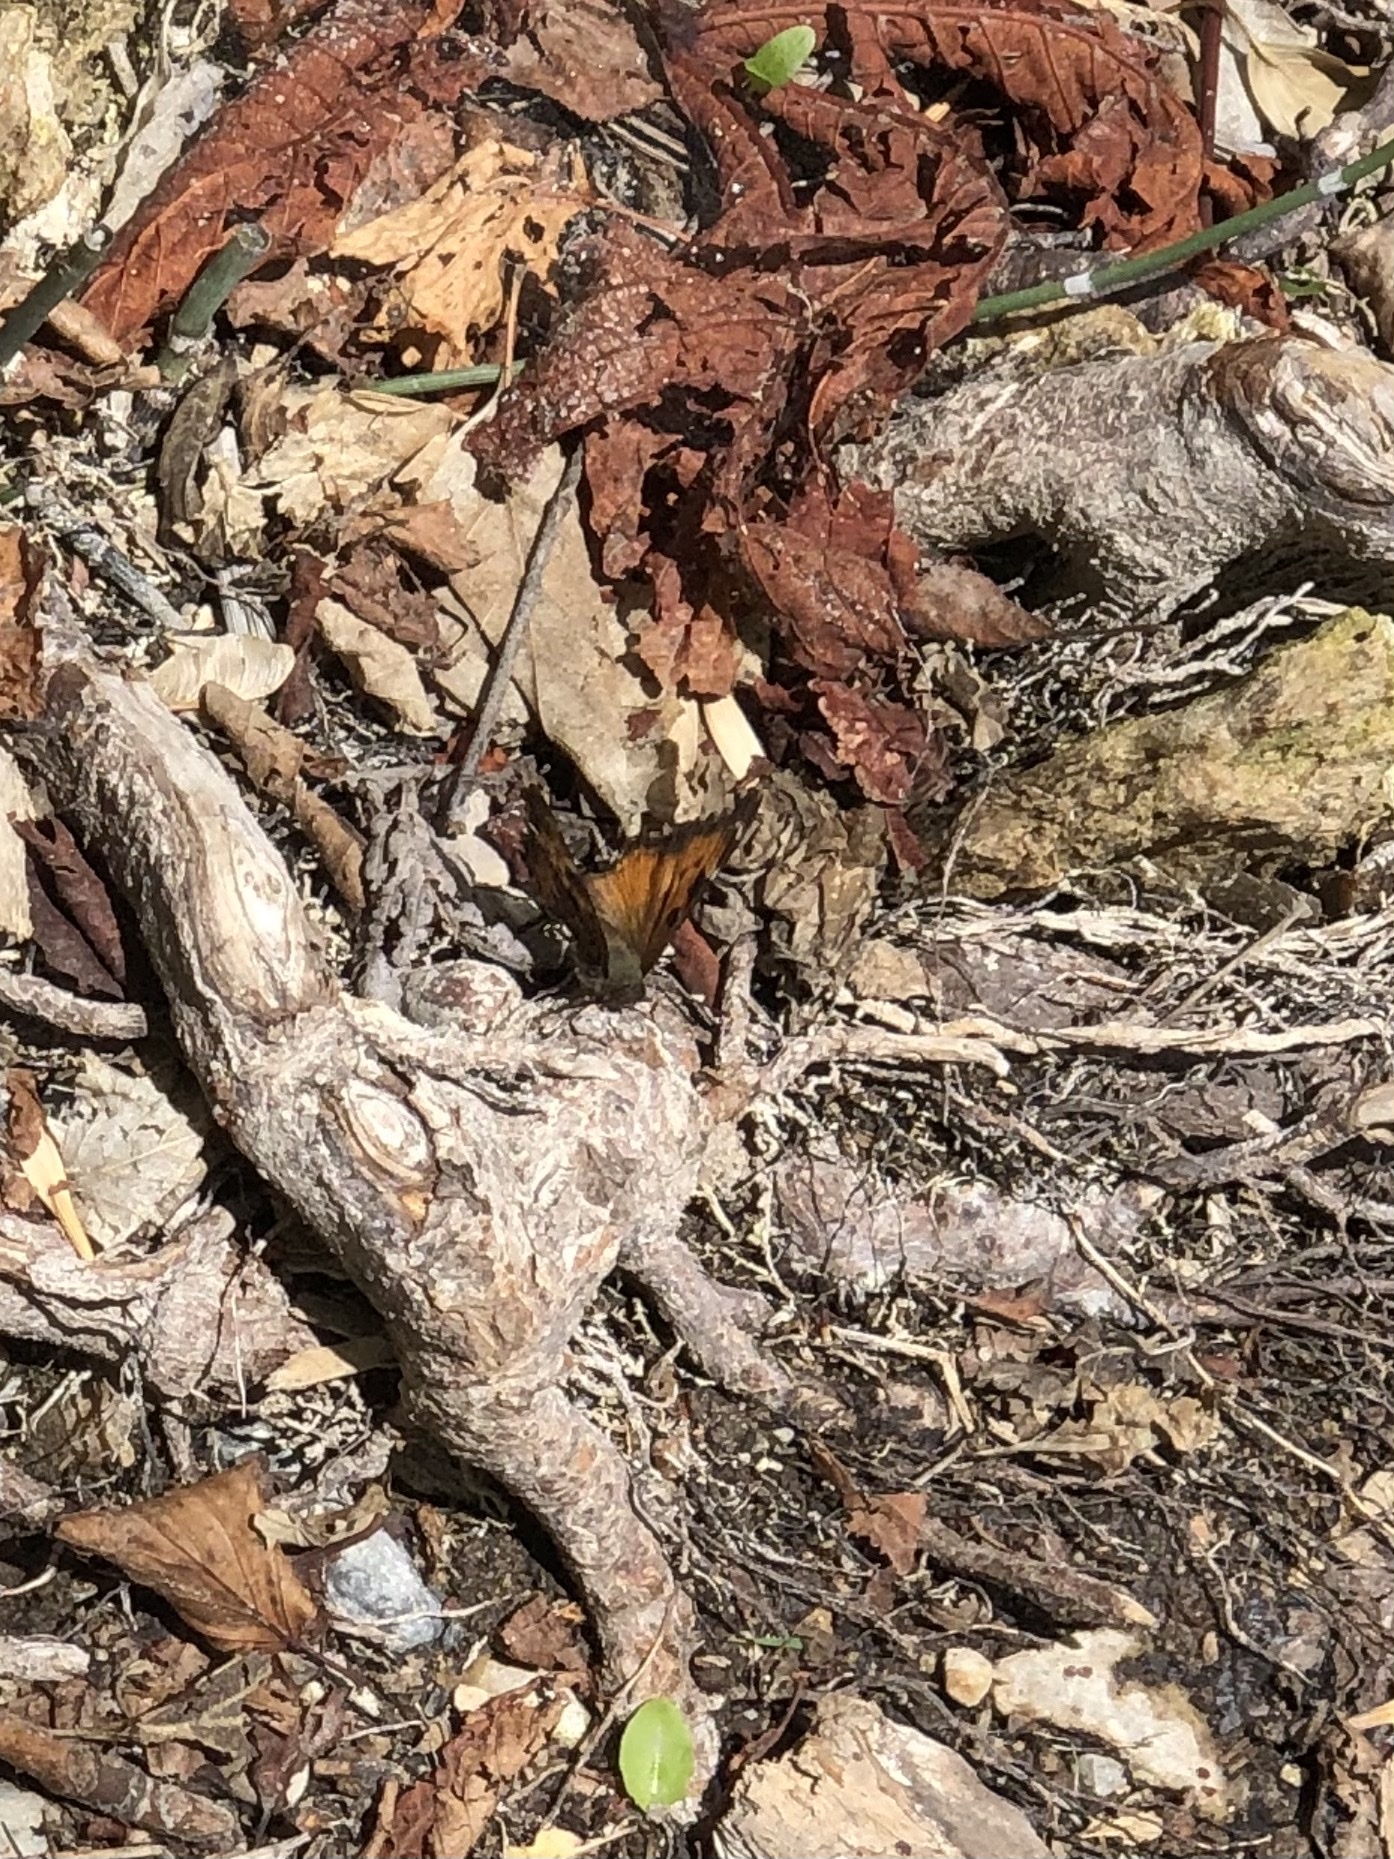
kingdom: Animalia
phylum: Arthropoda
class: Insecta
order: Lepidoptera
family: Nymphalidae
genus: Nymphalis
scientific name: Nymphalis californica
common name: California tortoiseshell
